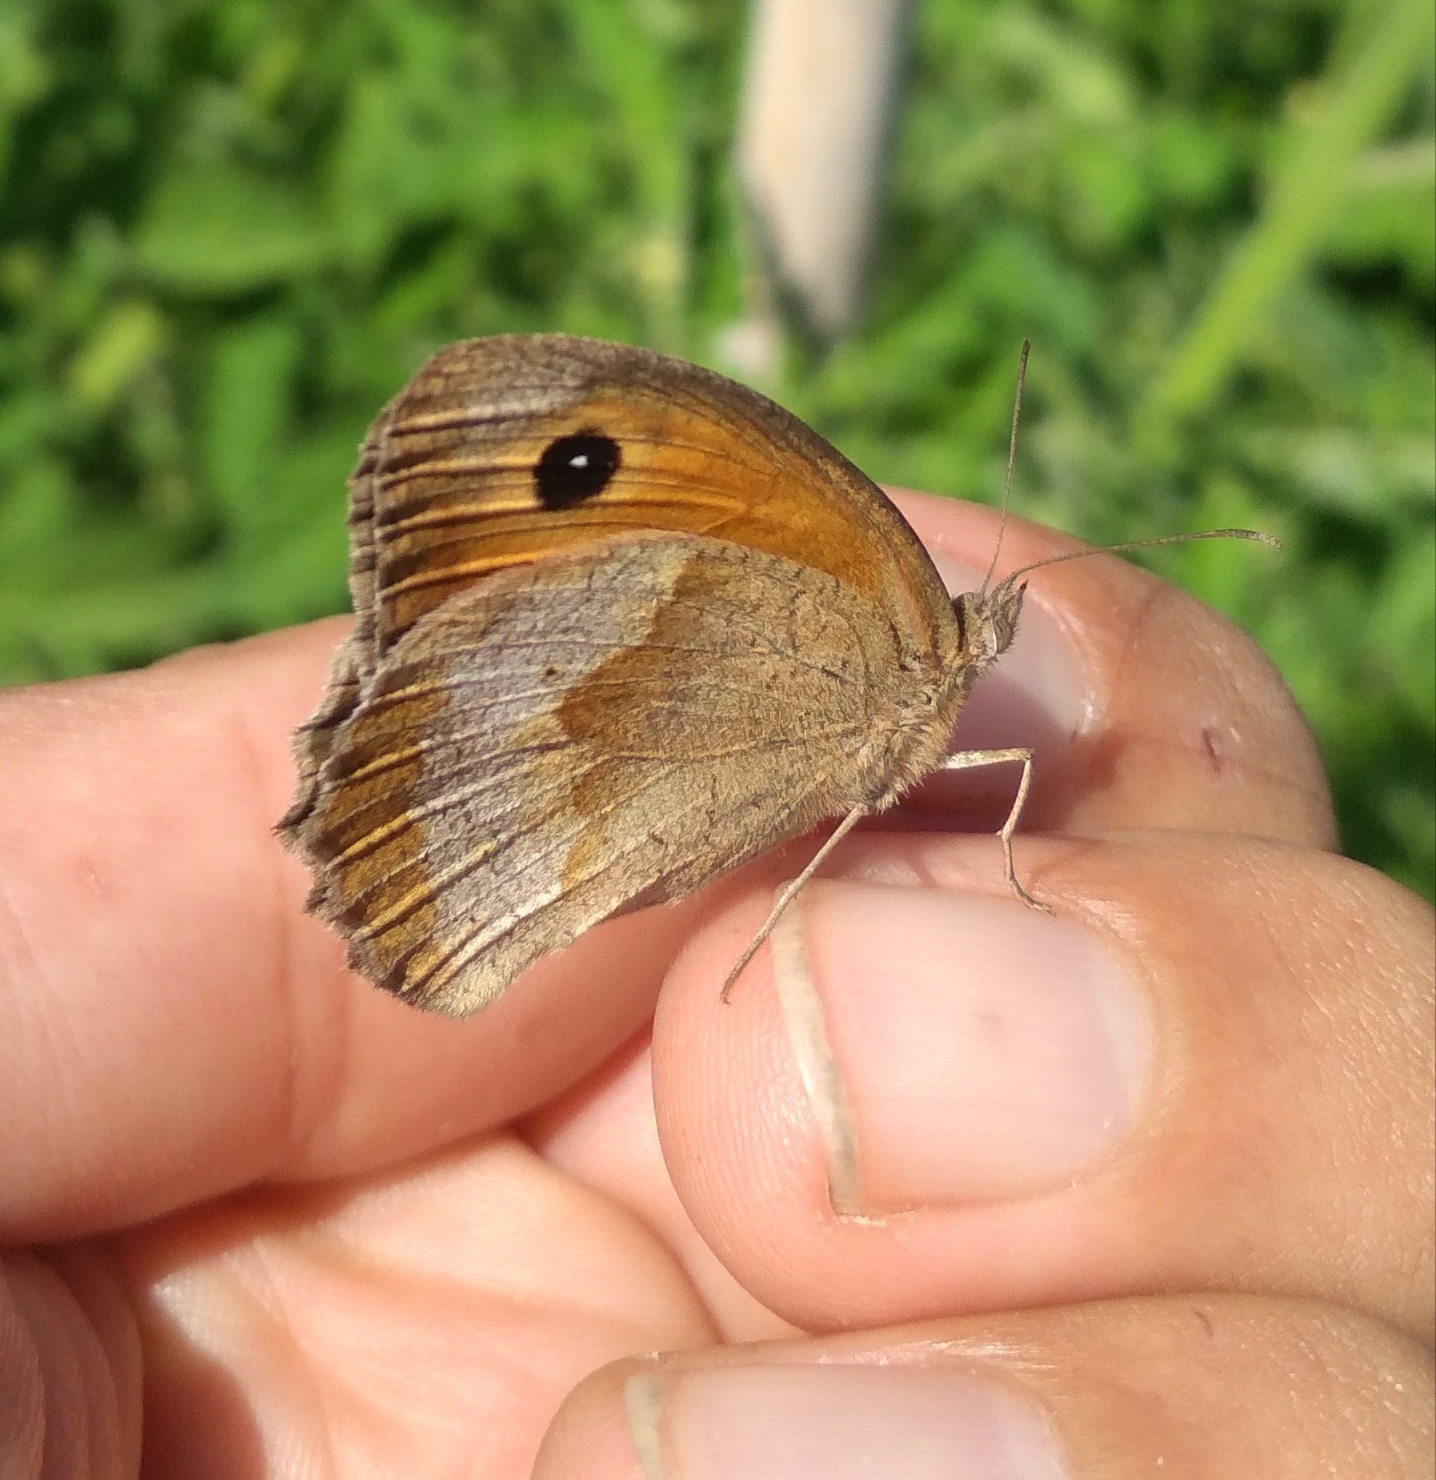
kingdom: Animalia
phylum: Arthropoda
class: Insecta
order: Lepidoptera
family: Nymphalidae
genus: Maniola
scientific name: Maniola jurtina
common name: Meadow brown
